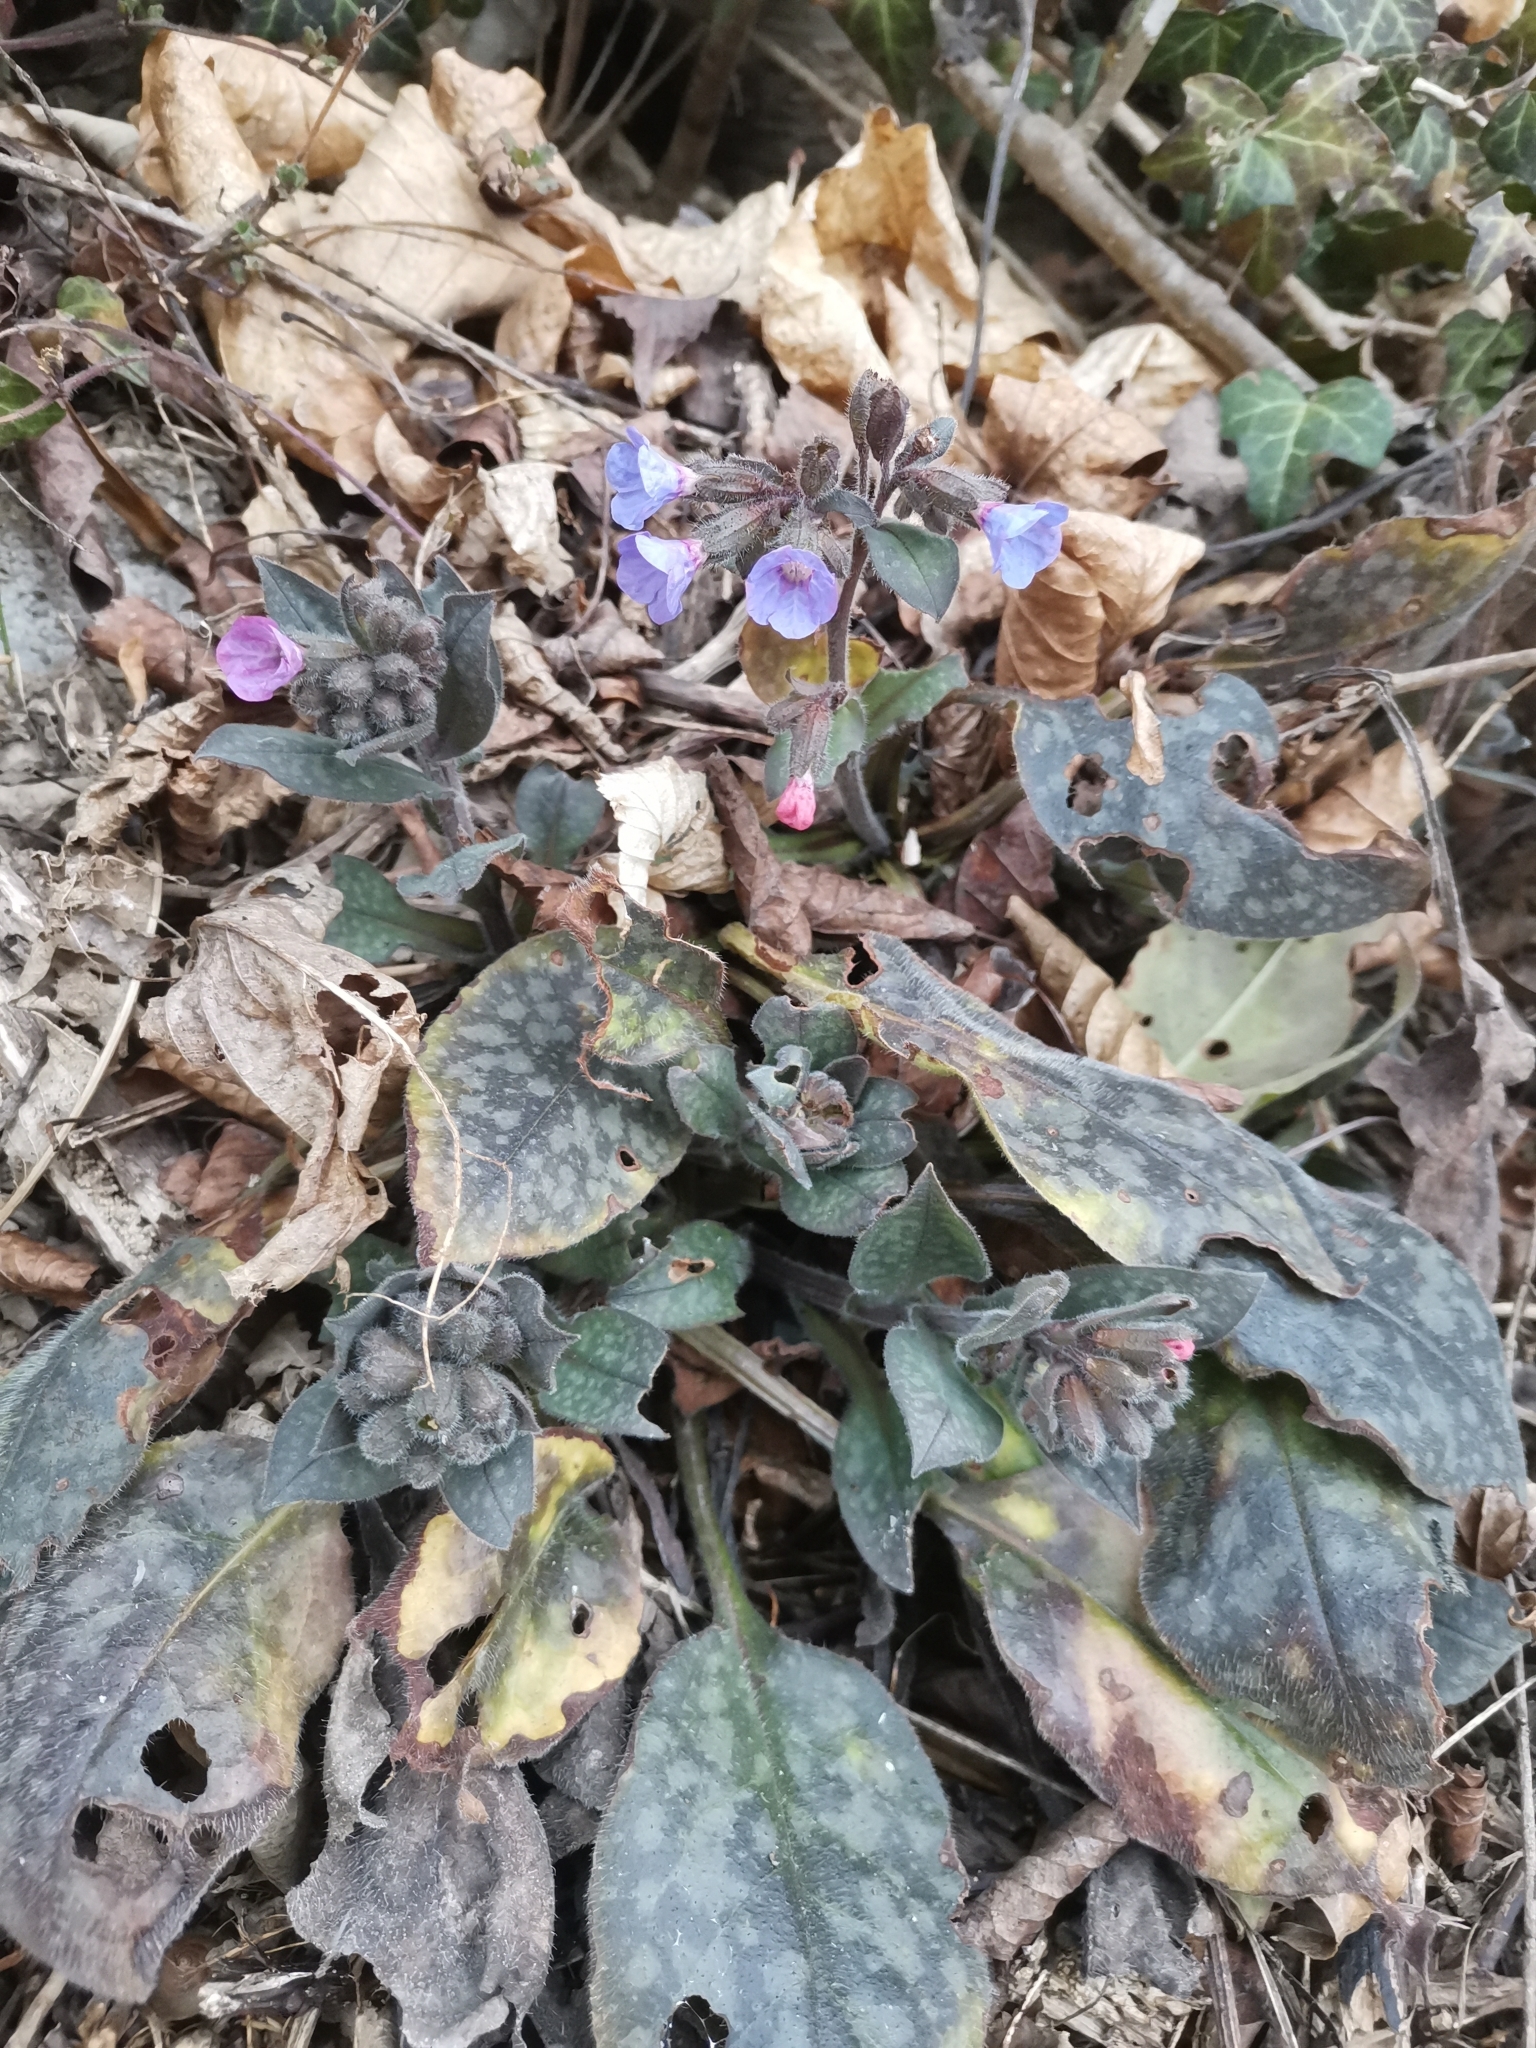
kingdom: Plantae
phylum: Tracheophyta
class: Magnoliopsida
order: Boraginales
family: Boraginaceae
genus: Pulmonaria
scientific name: Pulmonaria officinalis
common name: Lungwort
